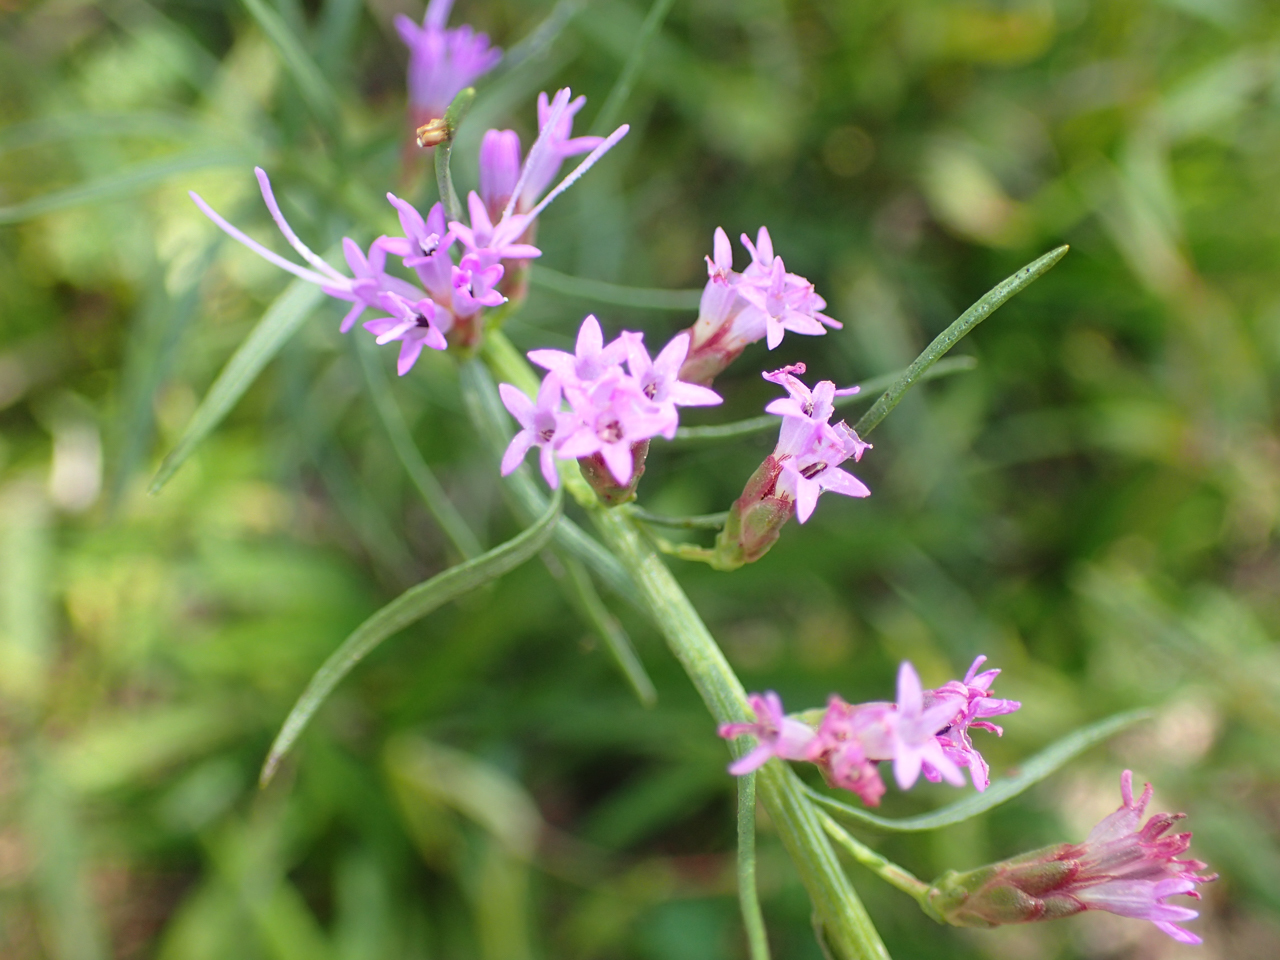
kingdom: Plantae
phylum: Tracheophyta
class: Magnoliopsida
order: Asterales
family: Asteraceae
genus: Liatris
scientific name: Liatris microcephala
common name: Small-head gayfeather
